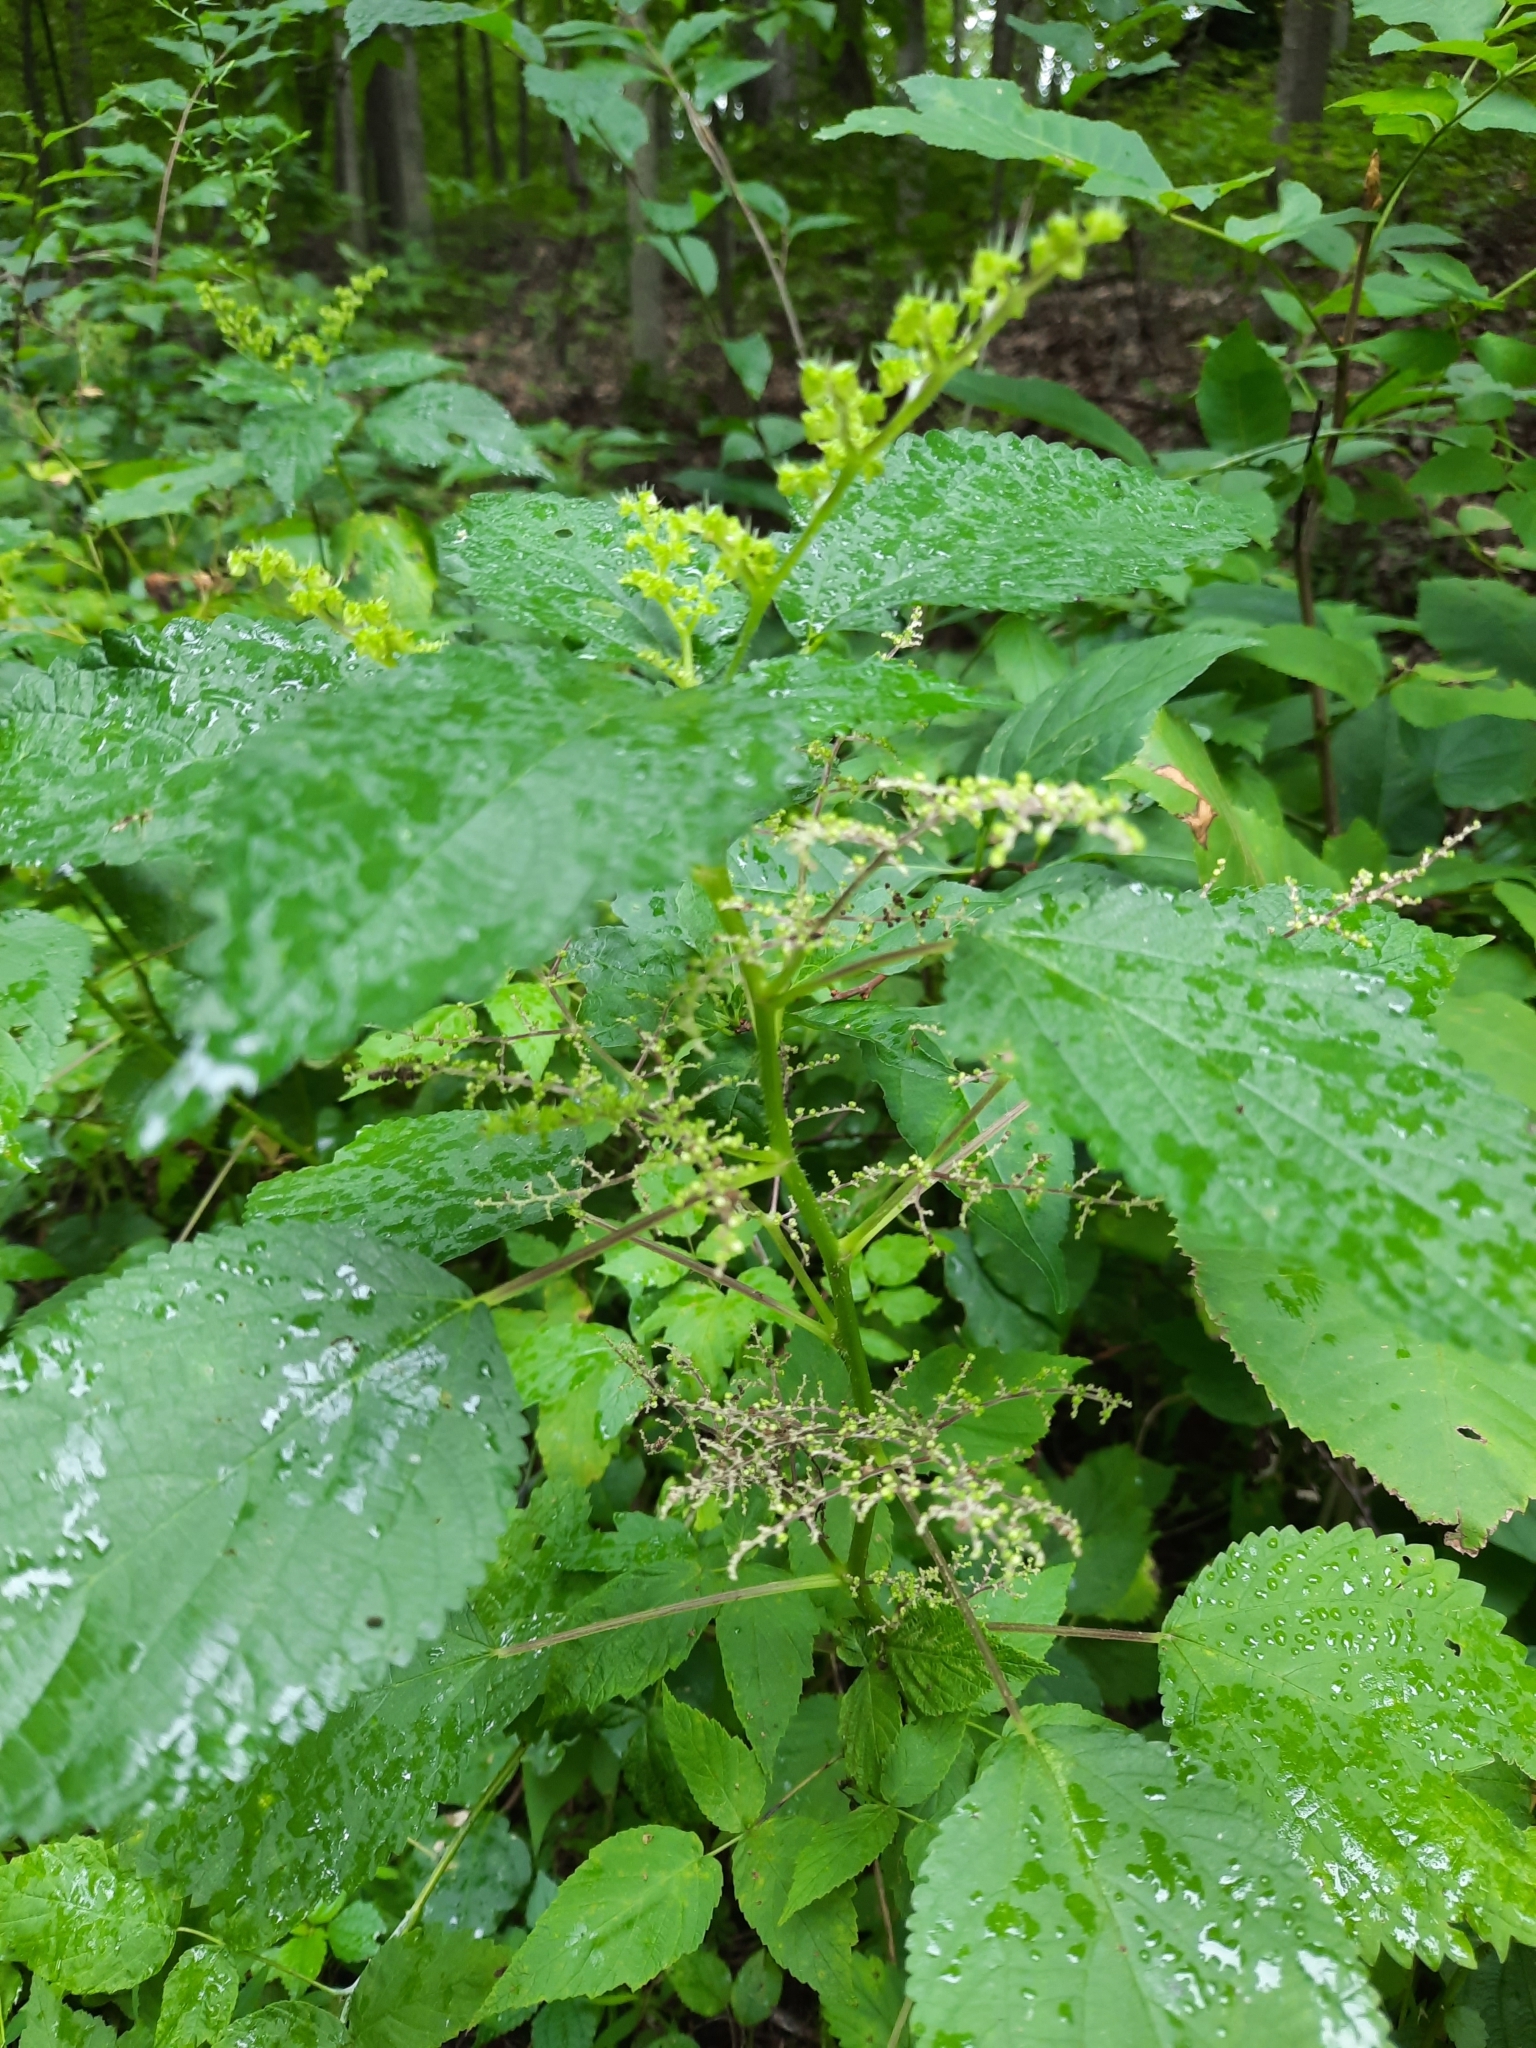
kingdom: Plantae
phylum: Tracheophyta
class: Magnoliopsida
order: Rosales
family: Urticaceae
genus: Laportea
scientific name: Laportea canadensis
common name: Canada nettle
